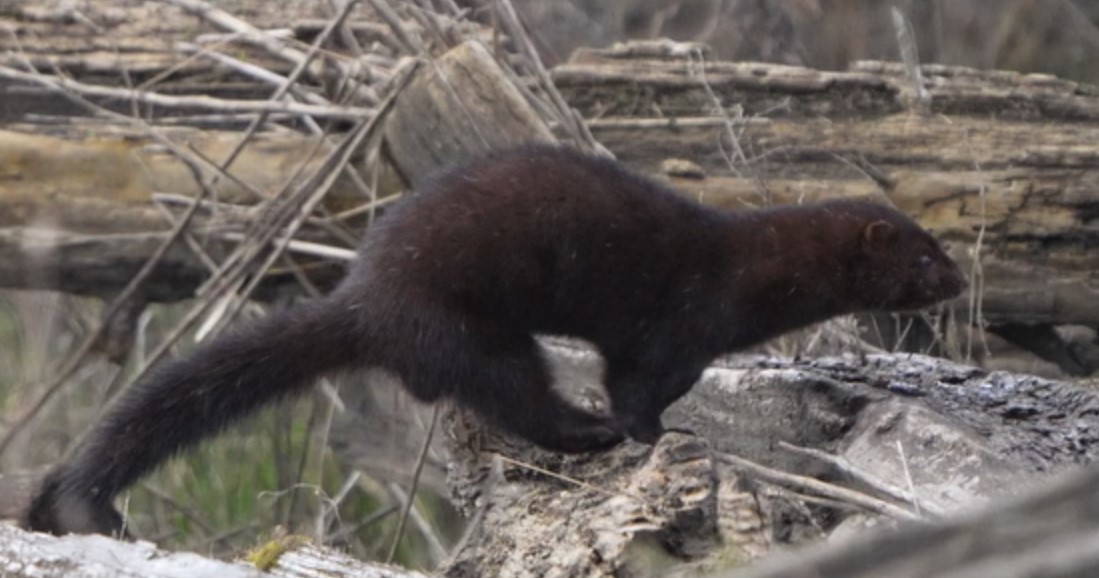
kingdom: Animalia
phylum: Chordata
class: Mammalia
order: Carnivora
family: Mustelidae
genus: Mustela
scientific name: Mustela
